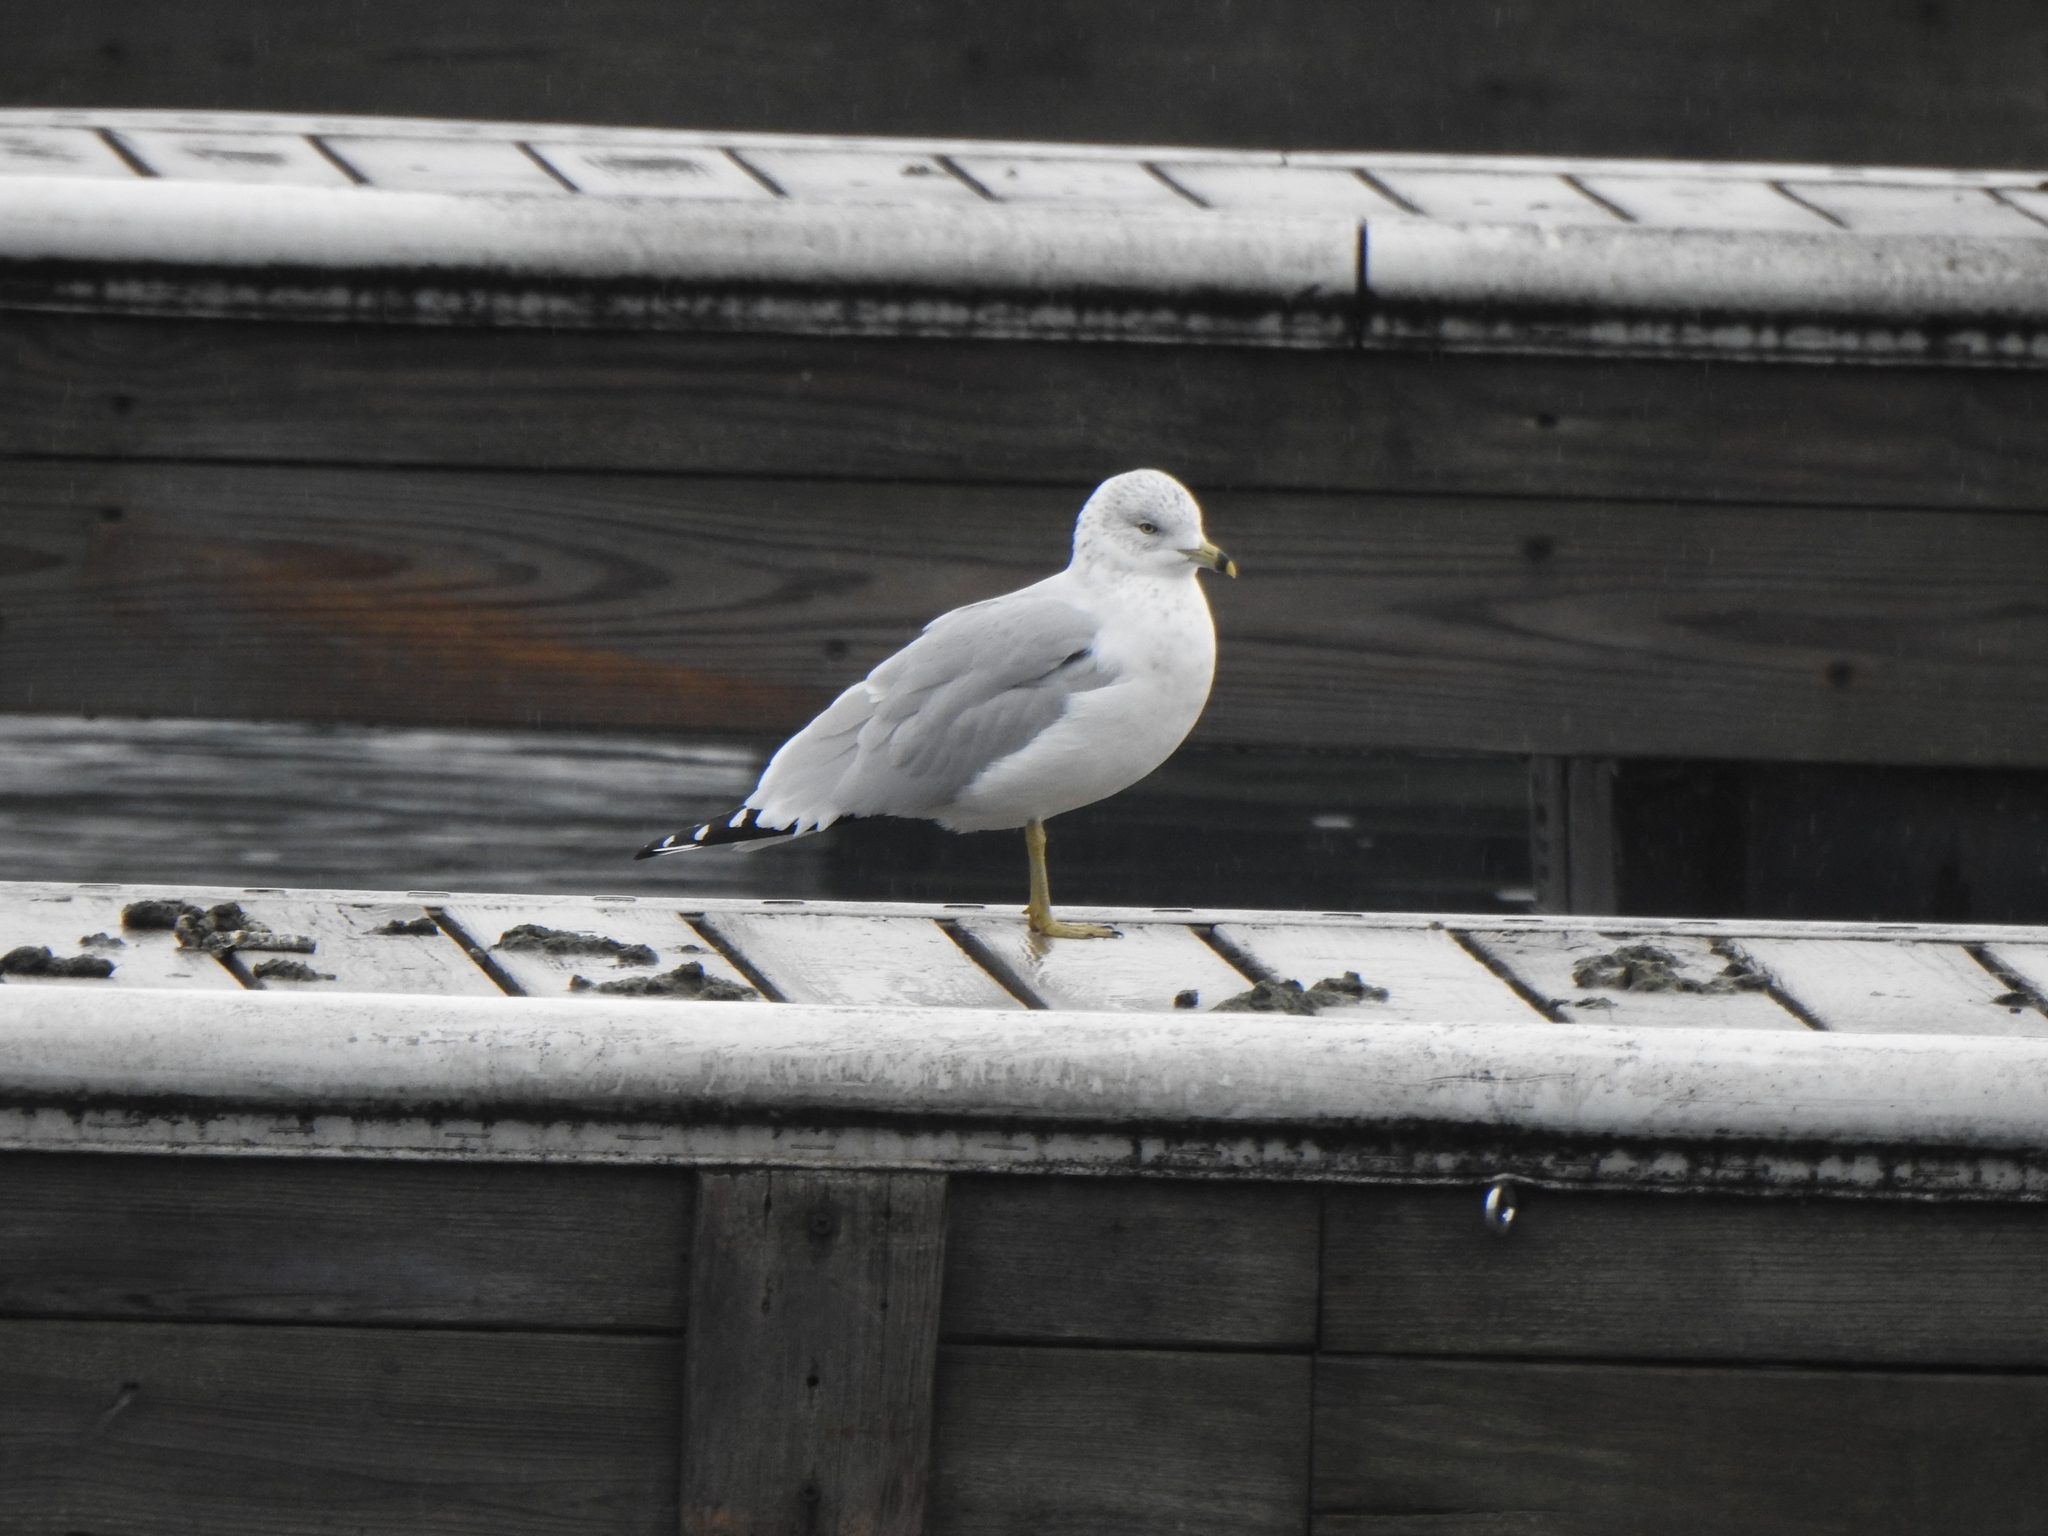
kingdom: Animalia
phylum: Chordata
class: Aves
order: Charadriiformes
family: Laridae
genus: Larus
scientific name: Larus delawarensis
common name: Ring-billed gull
